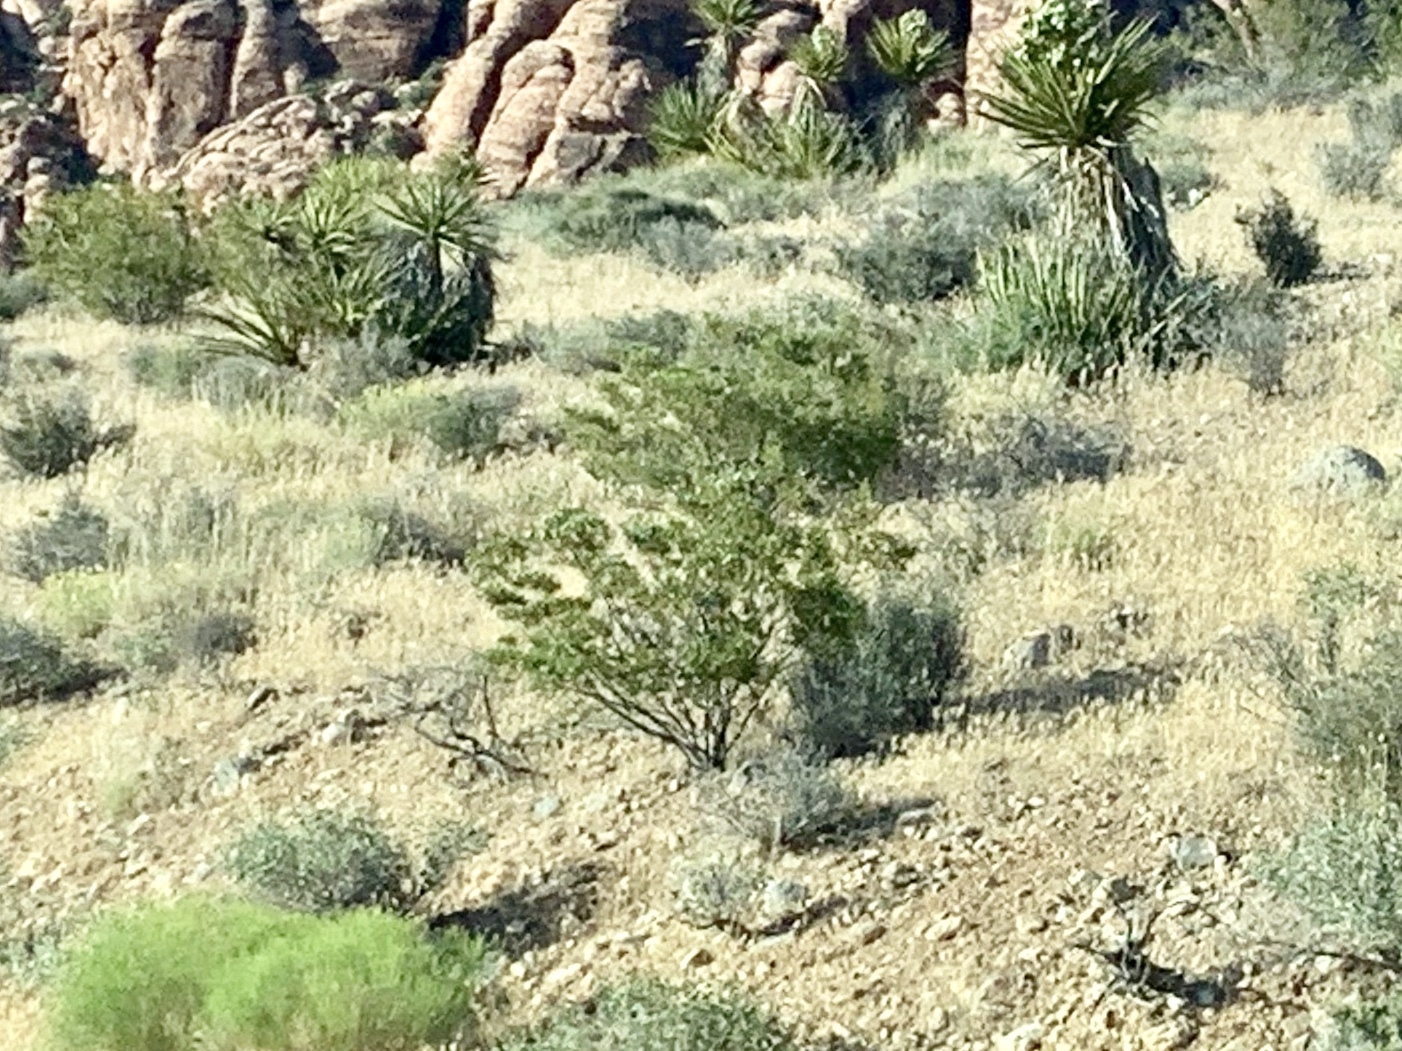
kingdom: Plantae
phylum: Tracheophyta
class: Magnoliopsida
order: Zygophyllales
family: Zygophyllaceae
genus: Larrea
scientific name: Larrea tridentata
